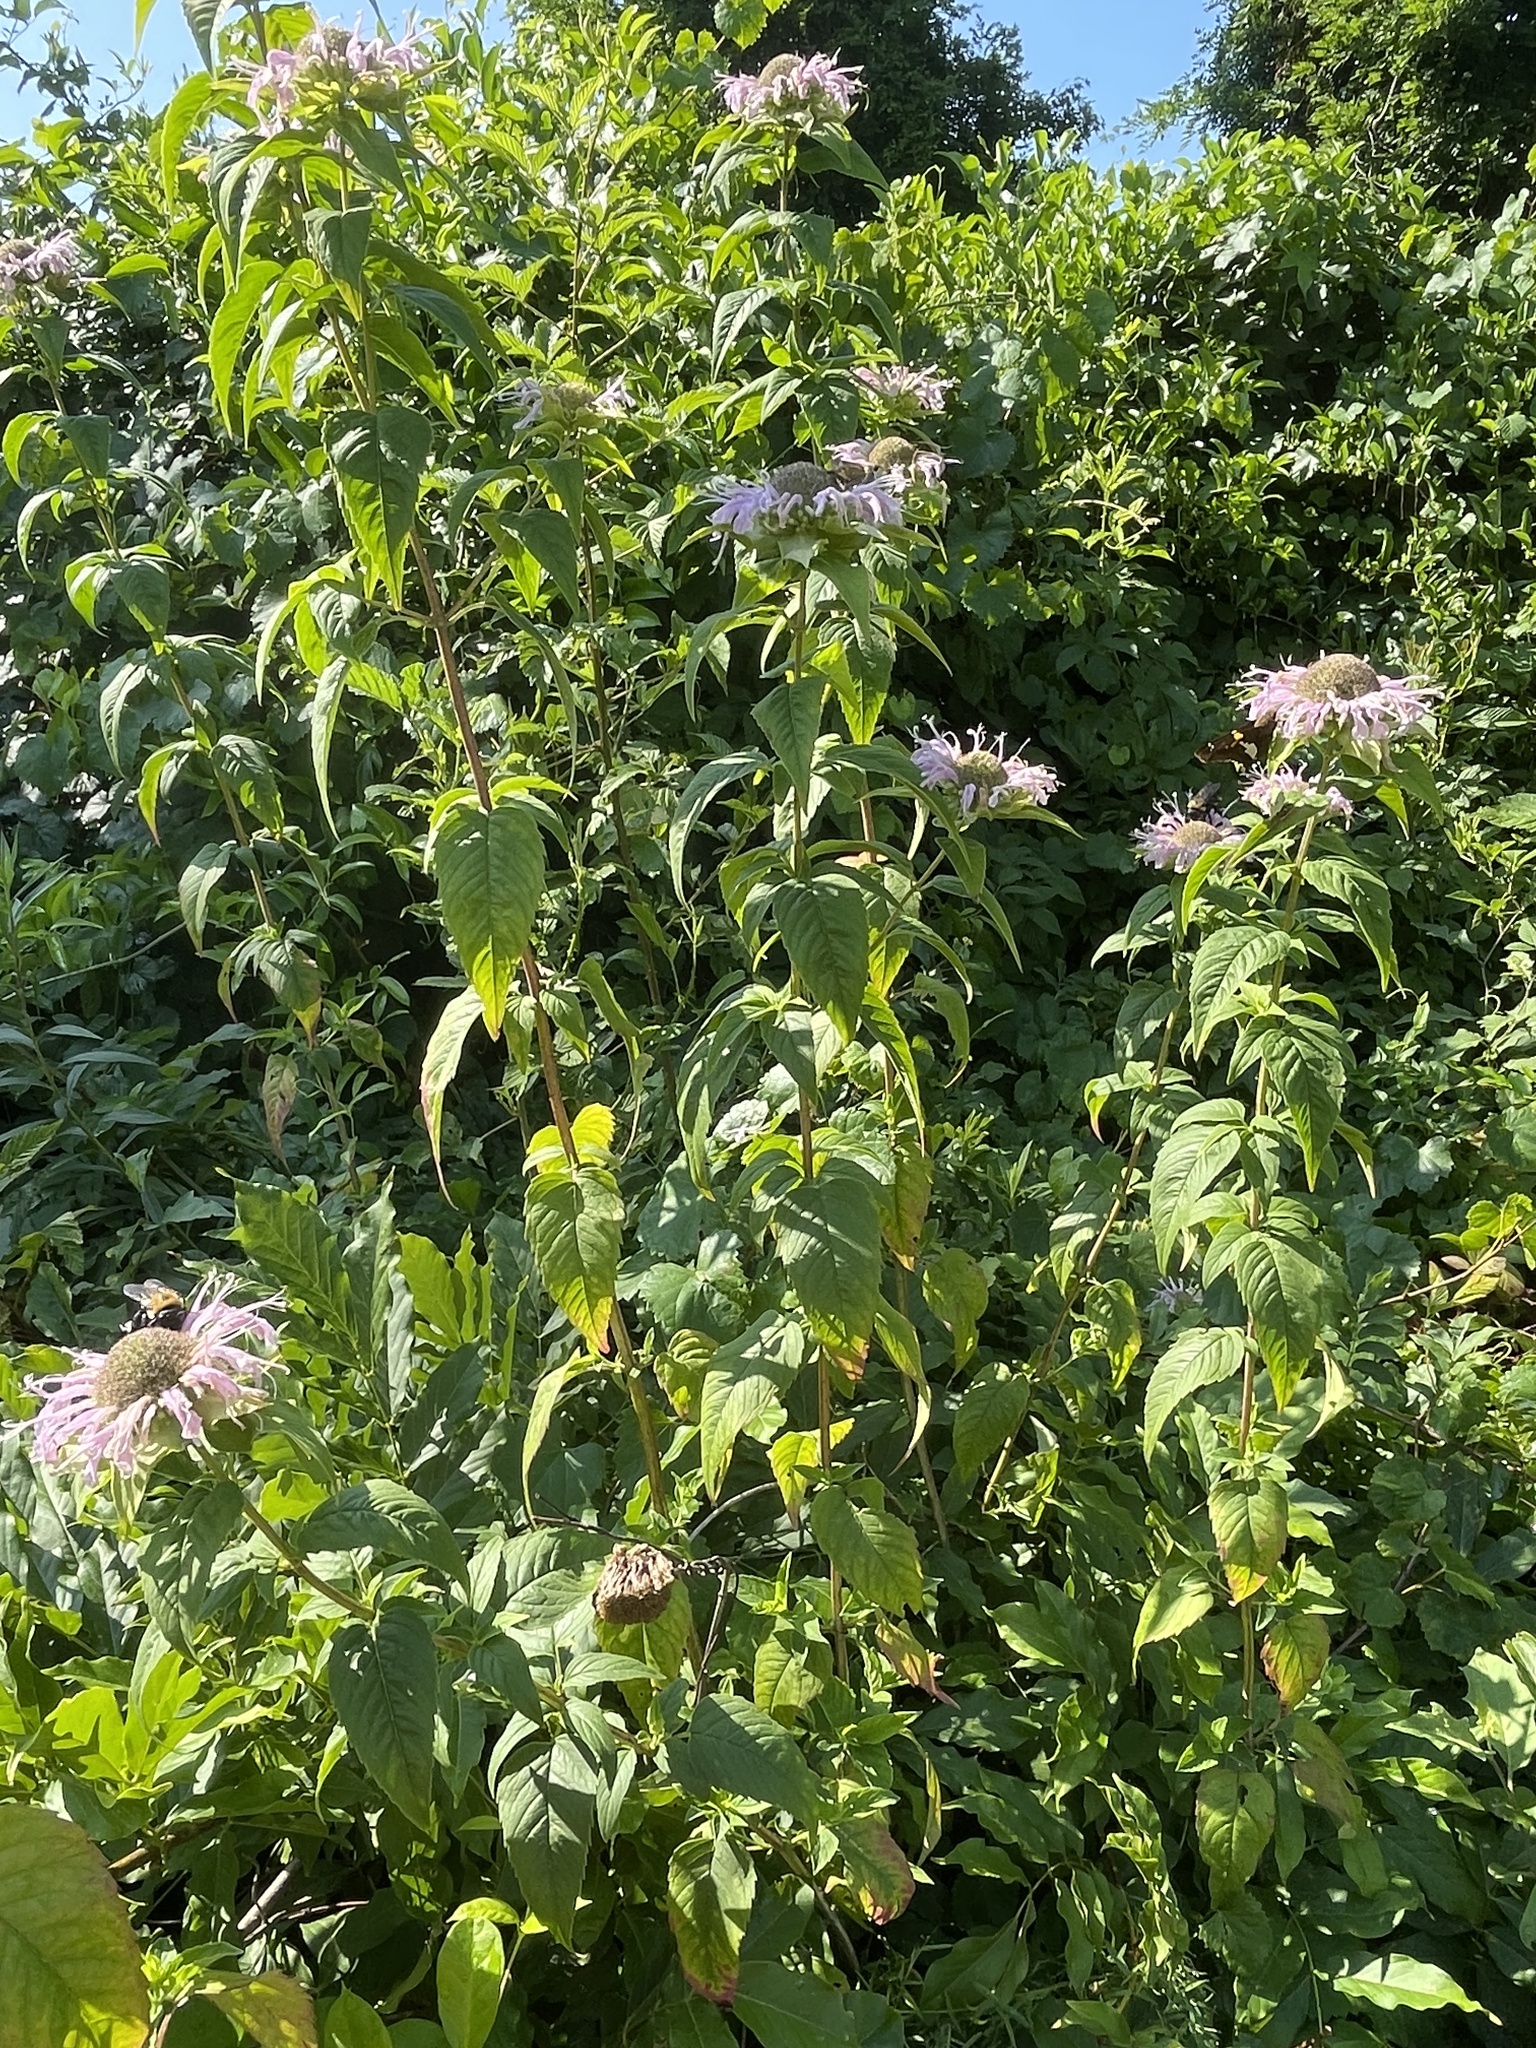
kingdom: Plantae
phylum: Tracheophyta
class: Magnoliopsida
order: Lamiales
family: Lamiaceae
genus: Monarda
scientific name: Monarda fistulosa
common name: Purple beebalm
